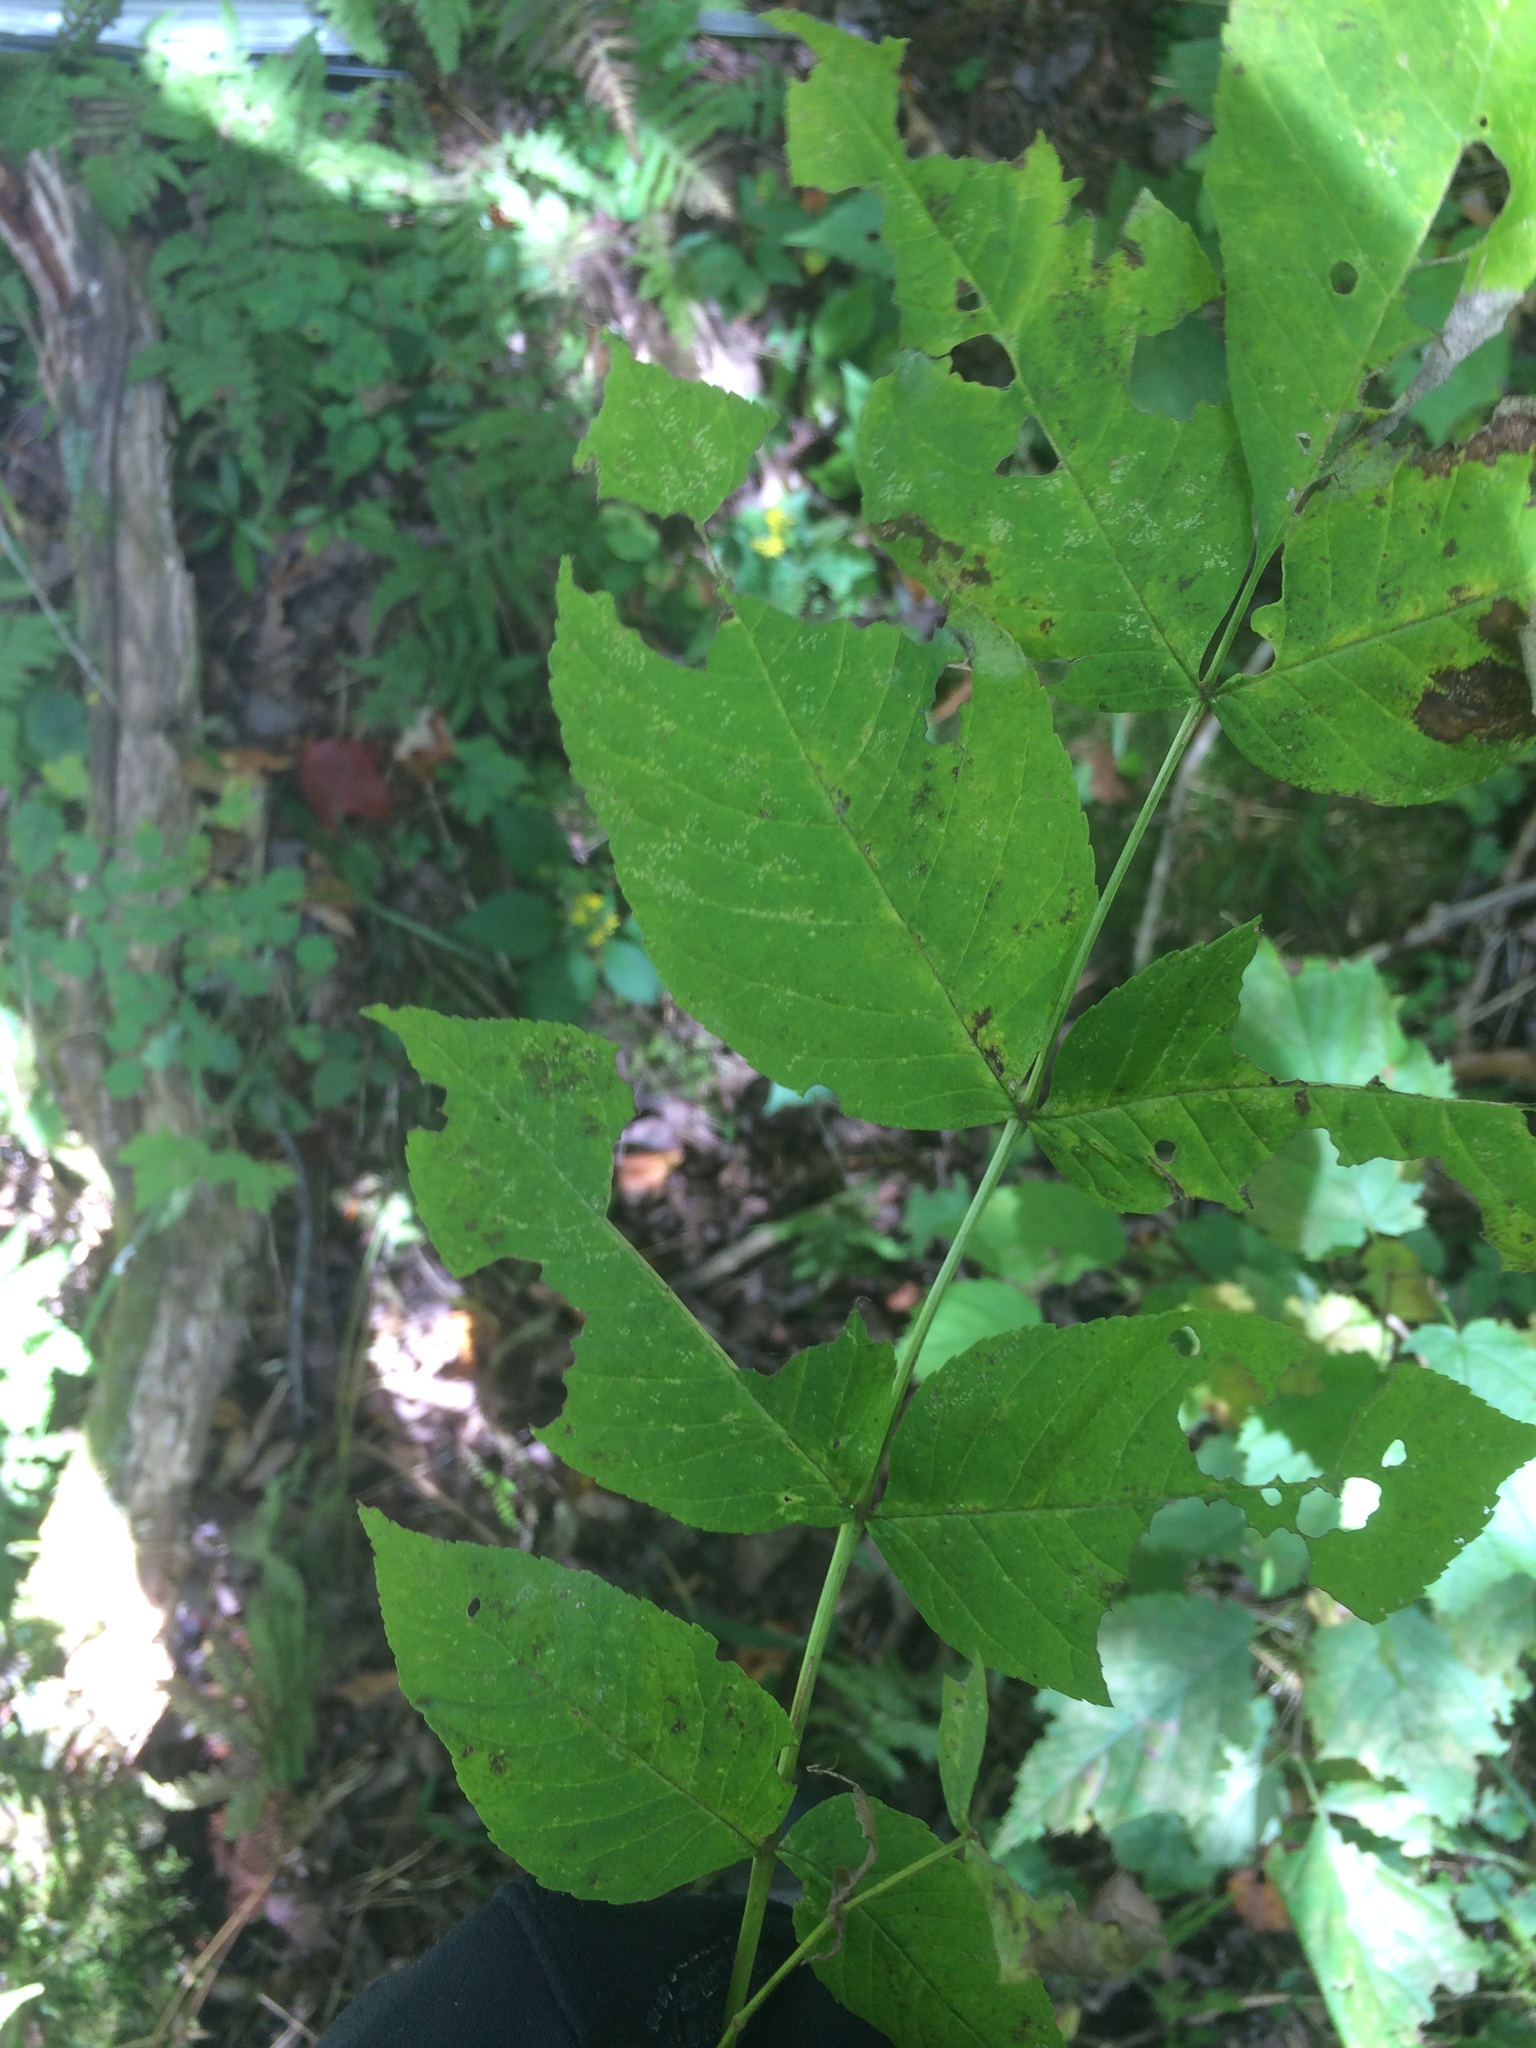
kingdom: Plantae
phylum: Tracheophyta
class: Magnoliopsida
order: Lamiales
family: Oleaceae
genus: Fraxinus
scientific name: Fraxinus nigra
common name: Black ash
